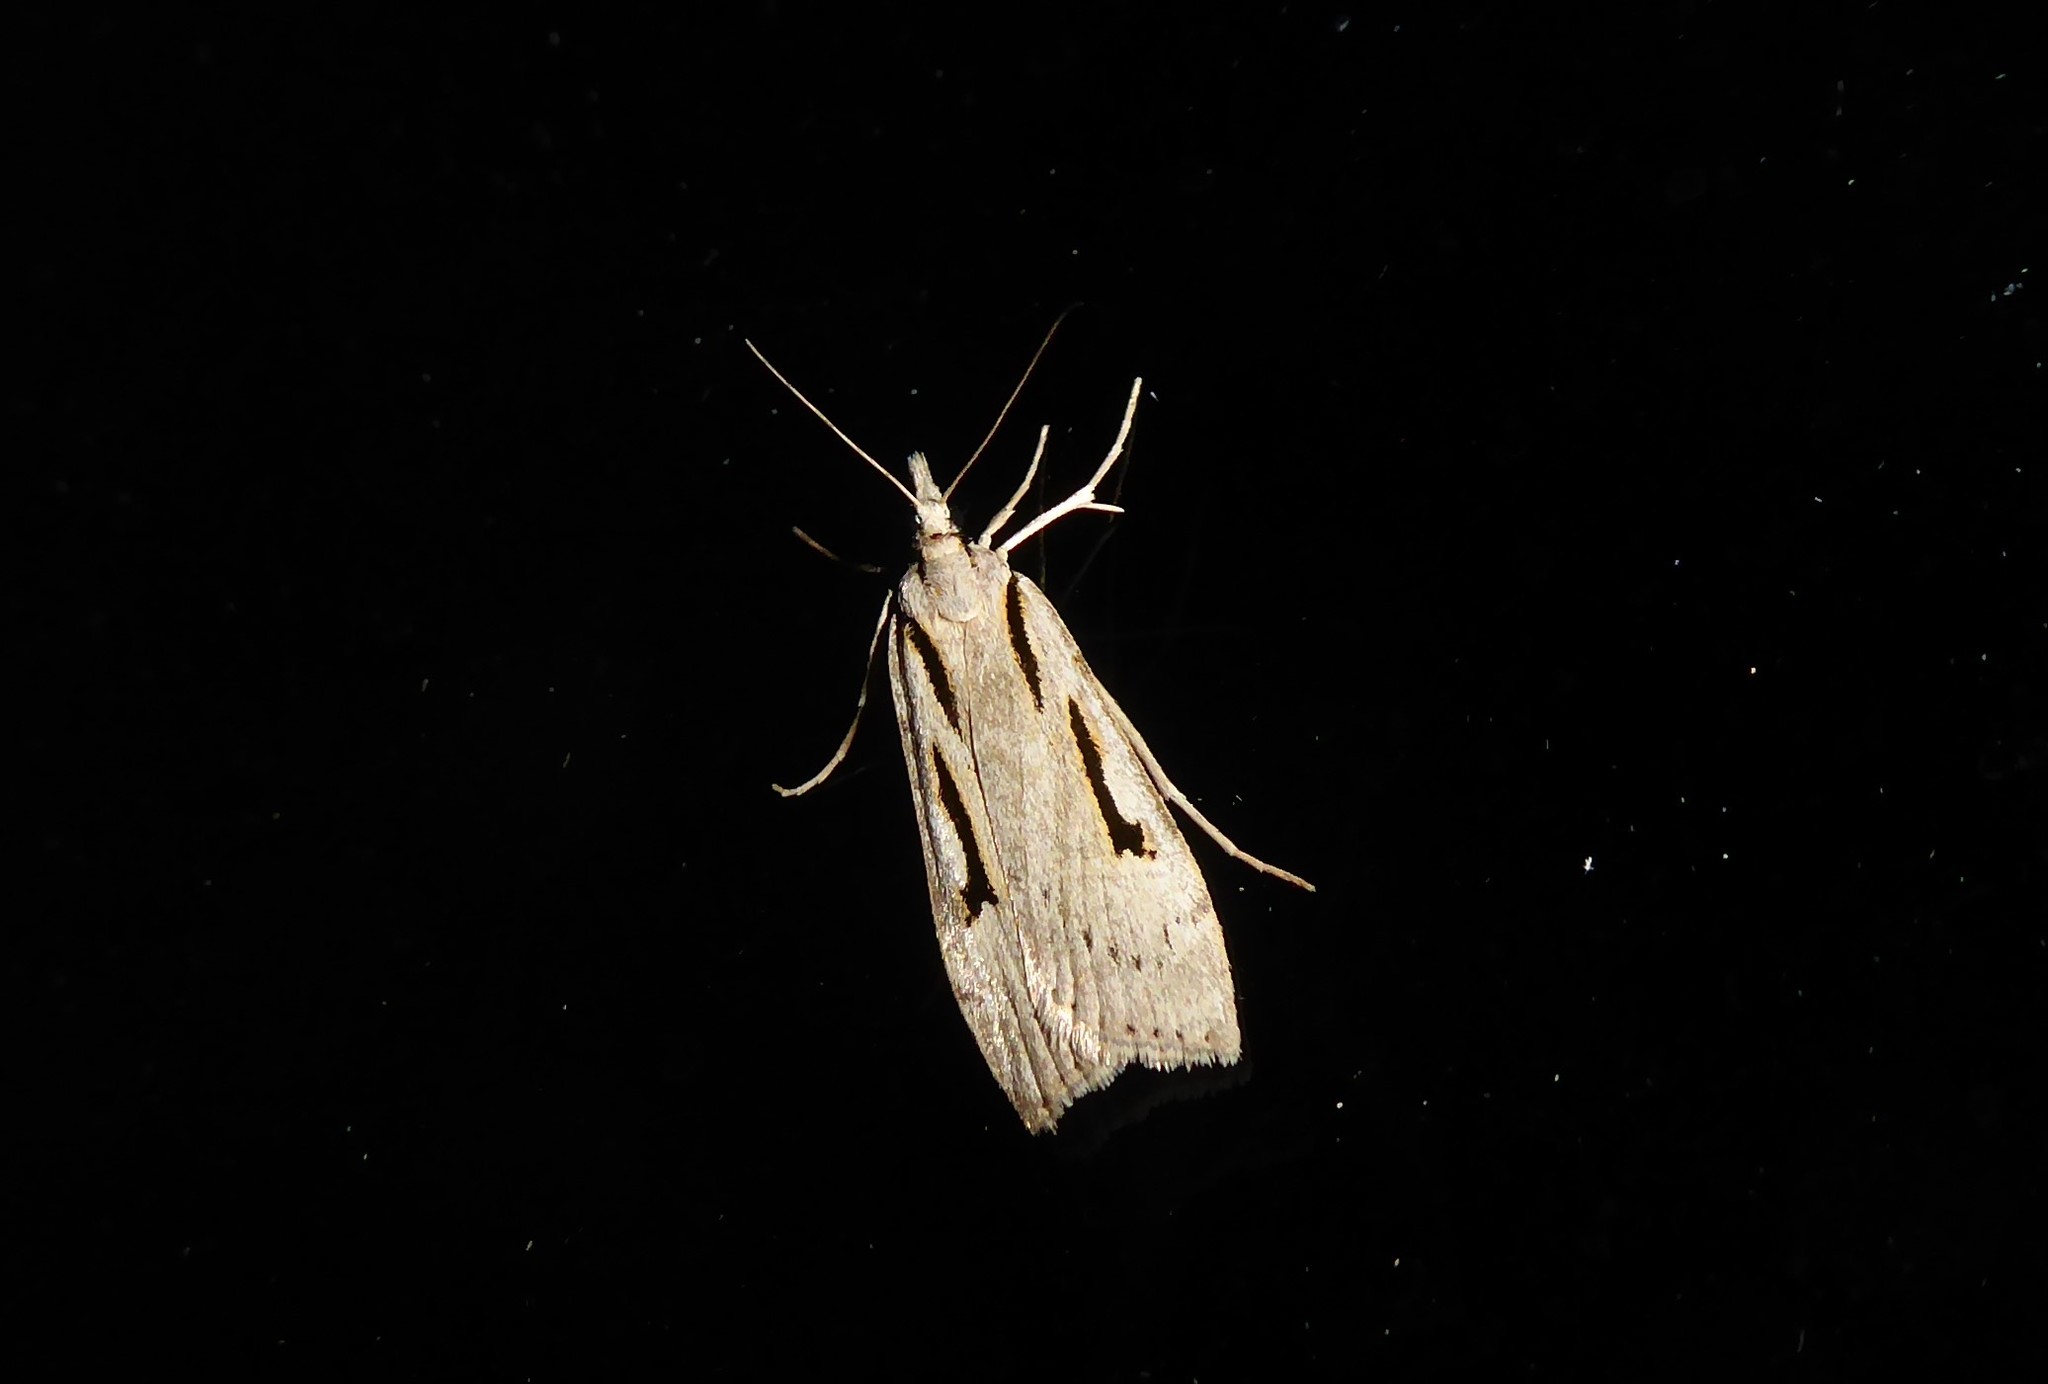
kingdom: Animalia
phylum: Arthropoda
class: Insecta
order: Lepidoptera
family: Crambidae
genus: Scoparia
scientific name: Scoparia rotuellus
